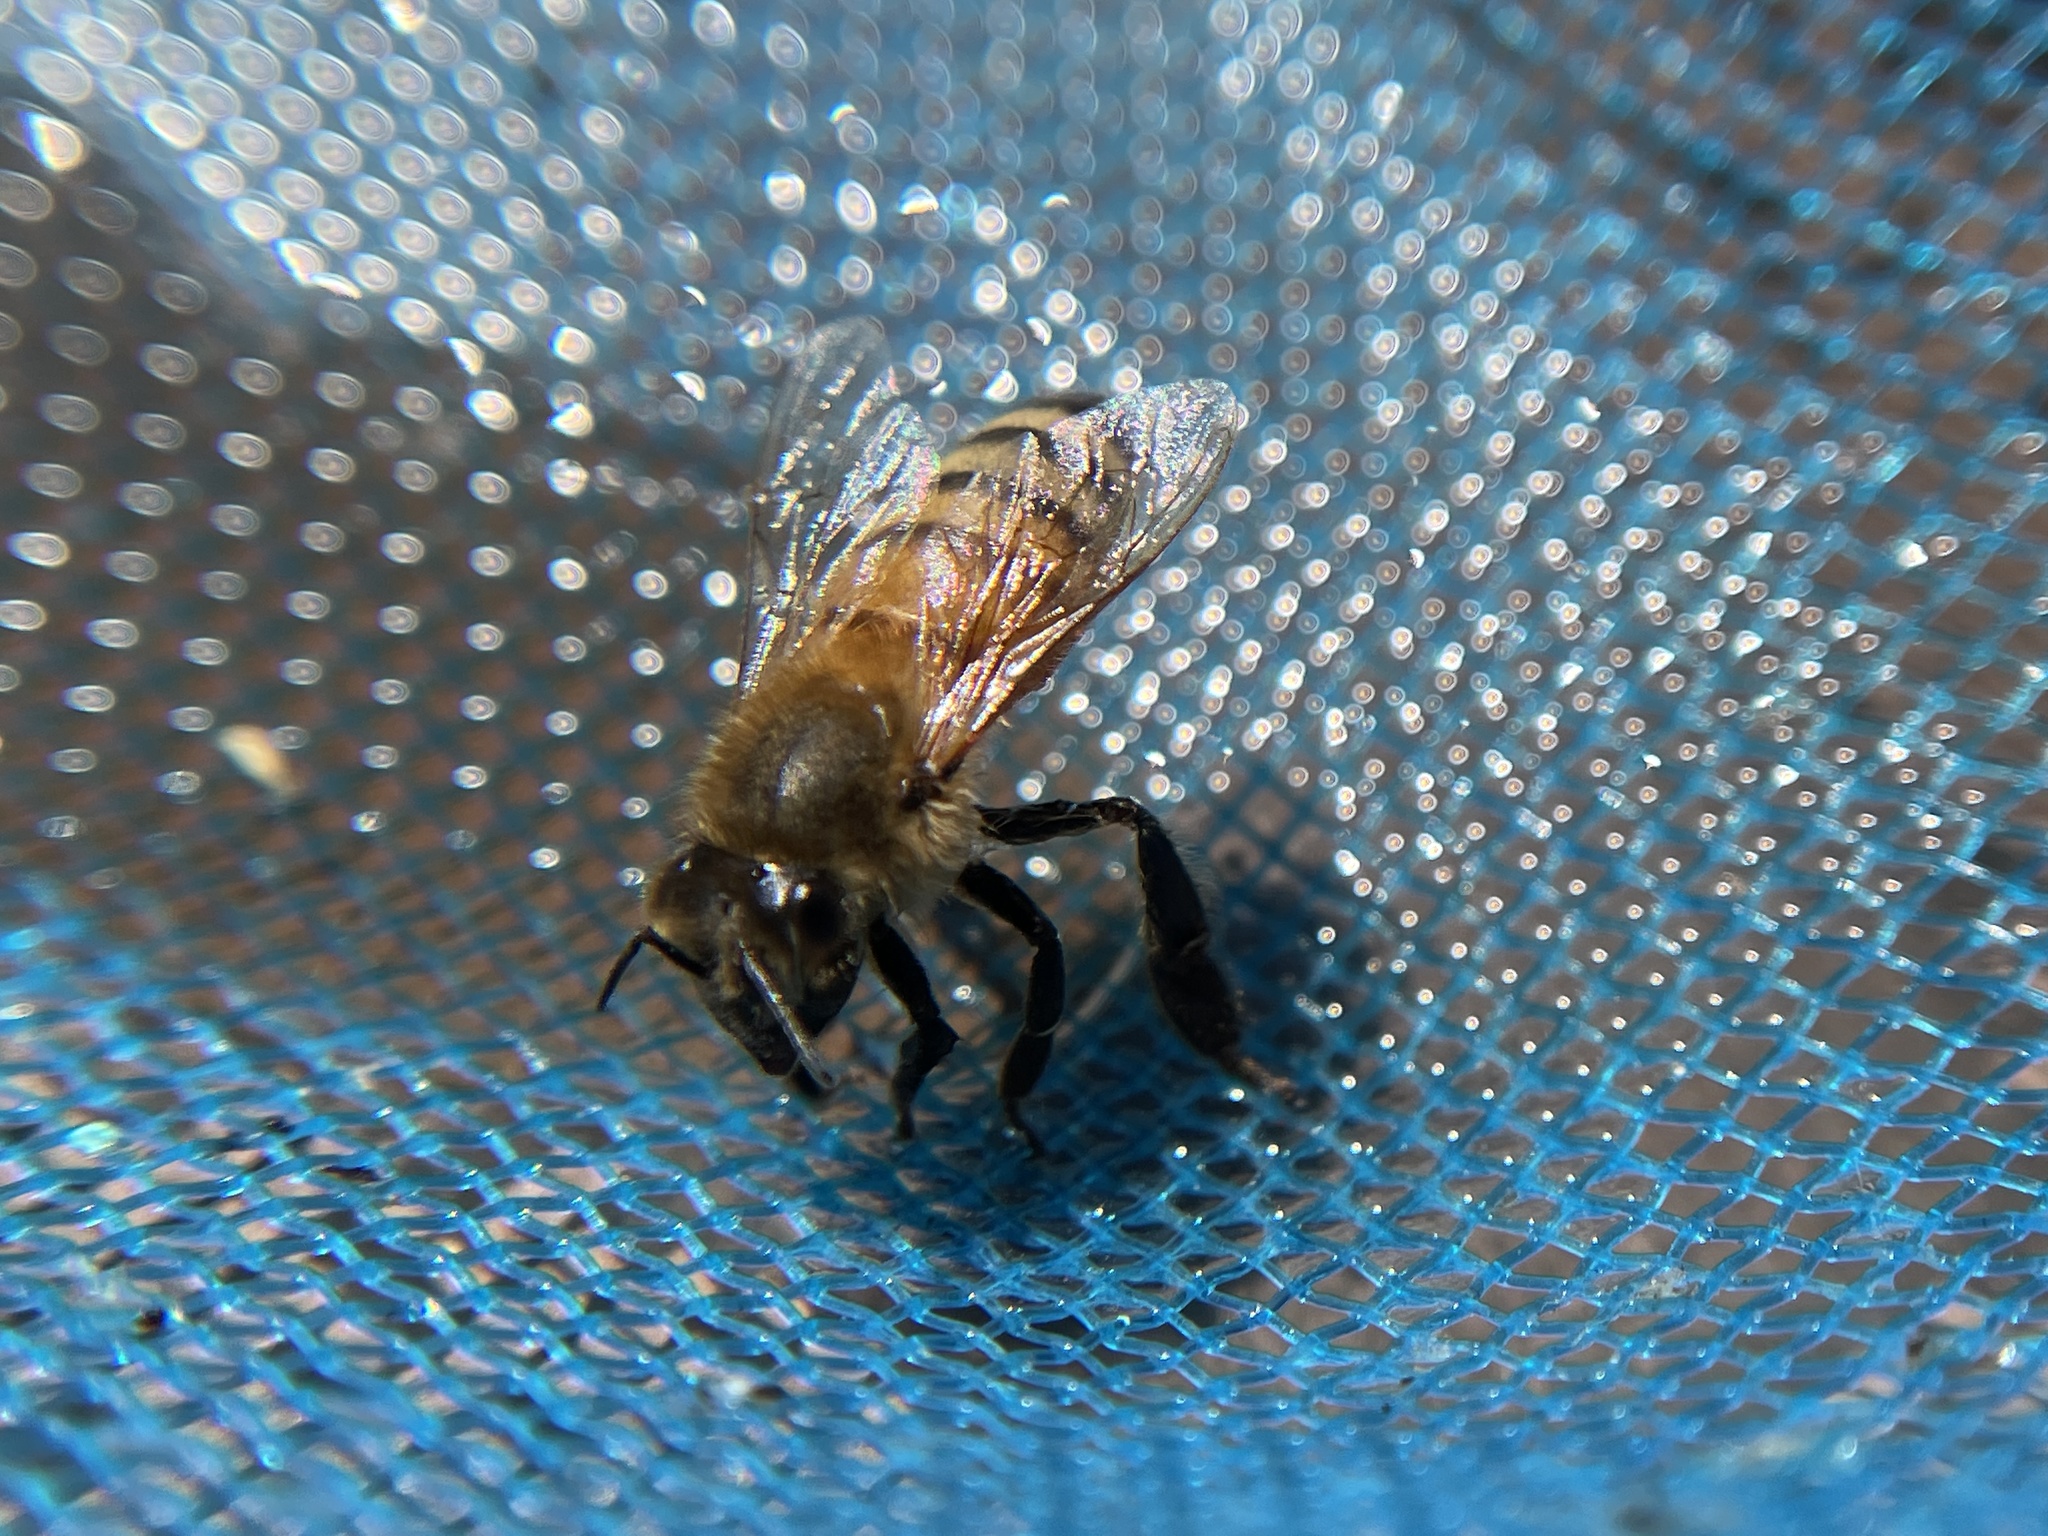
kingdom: Animalia
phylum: Arthropoda
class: Insecta
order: Hymenoptera
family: Apidae
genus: Apis
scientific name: Apis mellifera
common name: Honey bee
